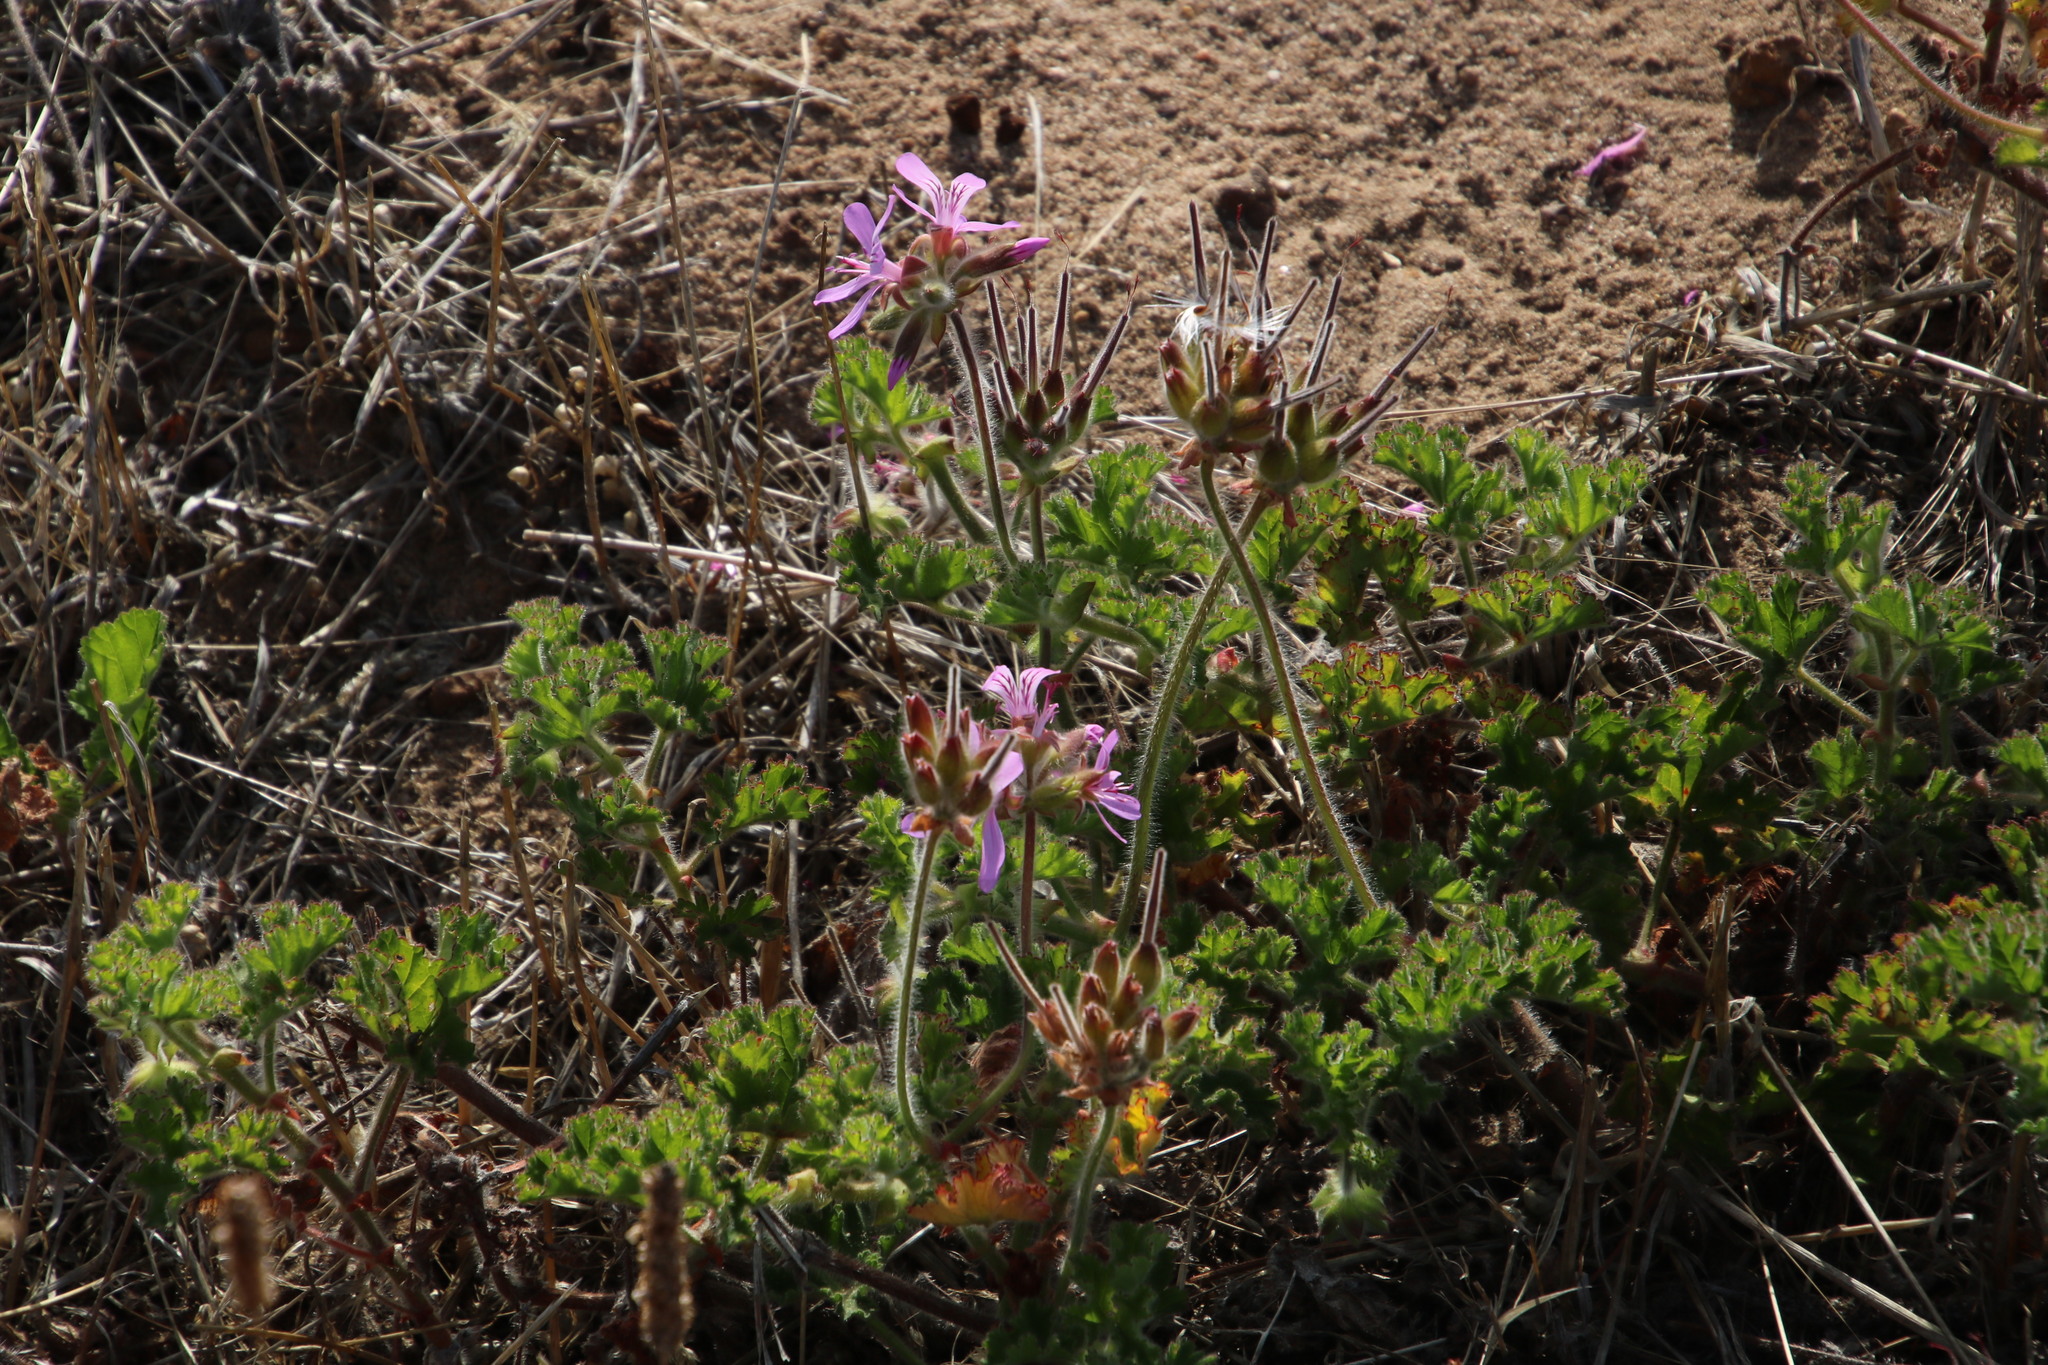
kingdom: Plantae
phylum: Tracheophyta
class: Magnoliopsida
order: Geraniales
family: Geraniaceae
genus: Pelargonium
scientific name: Pelargonium capitatum
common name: Rose scented geranium
